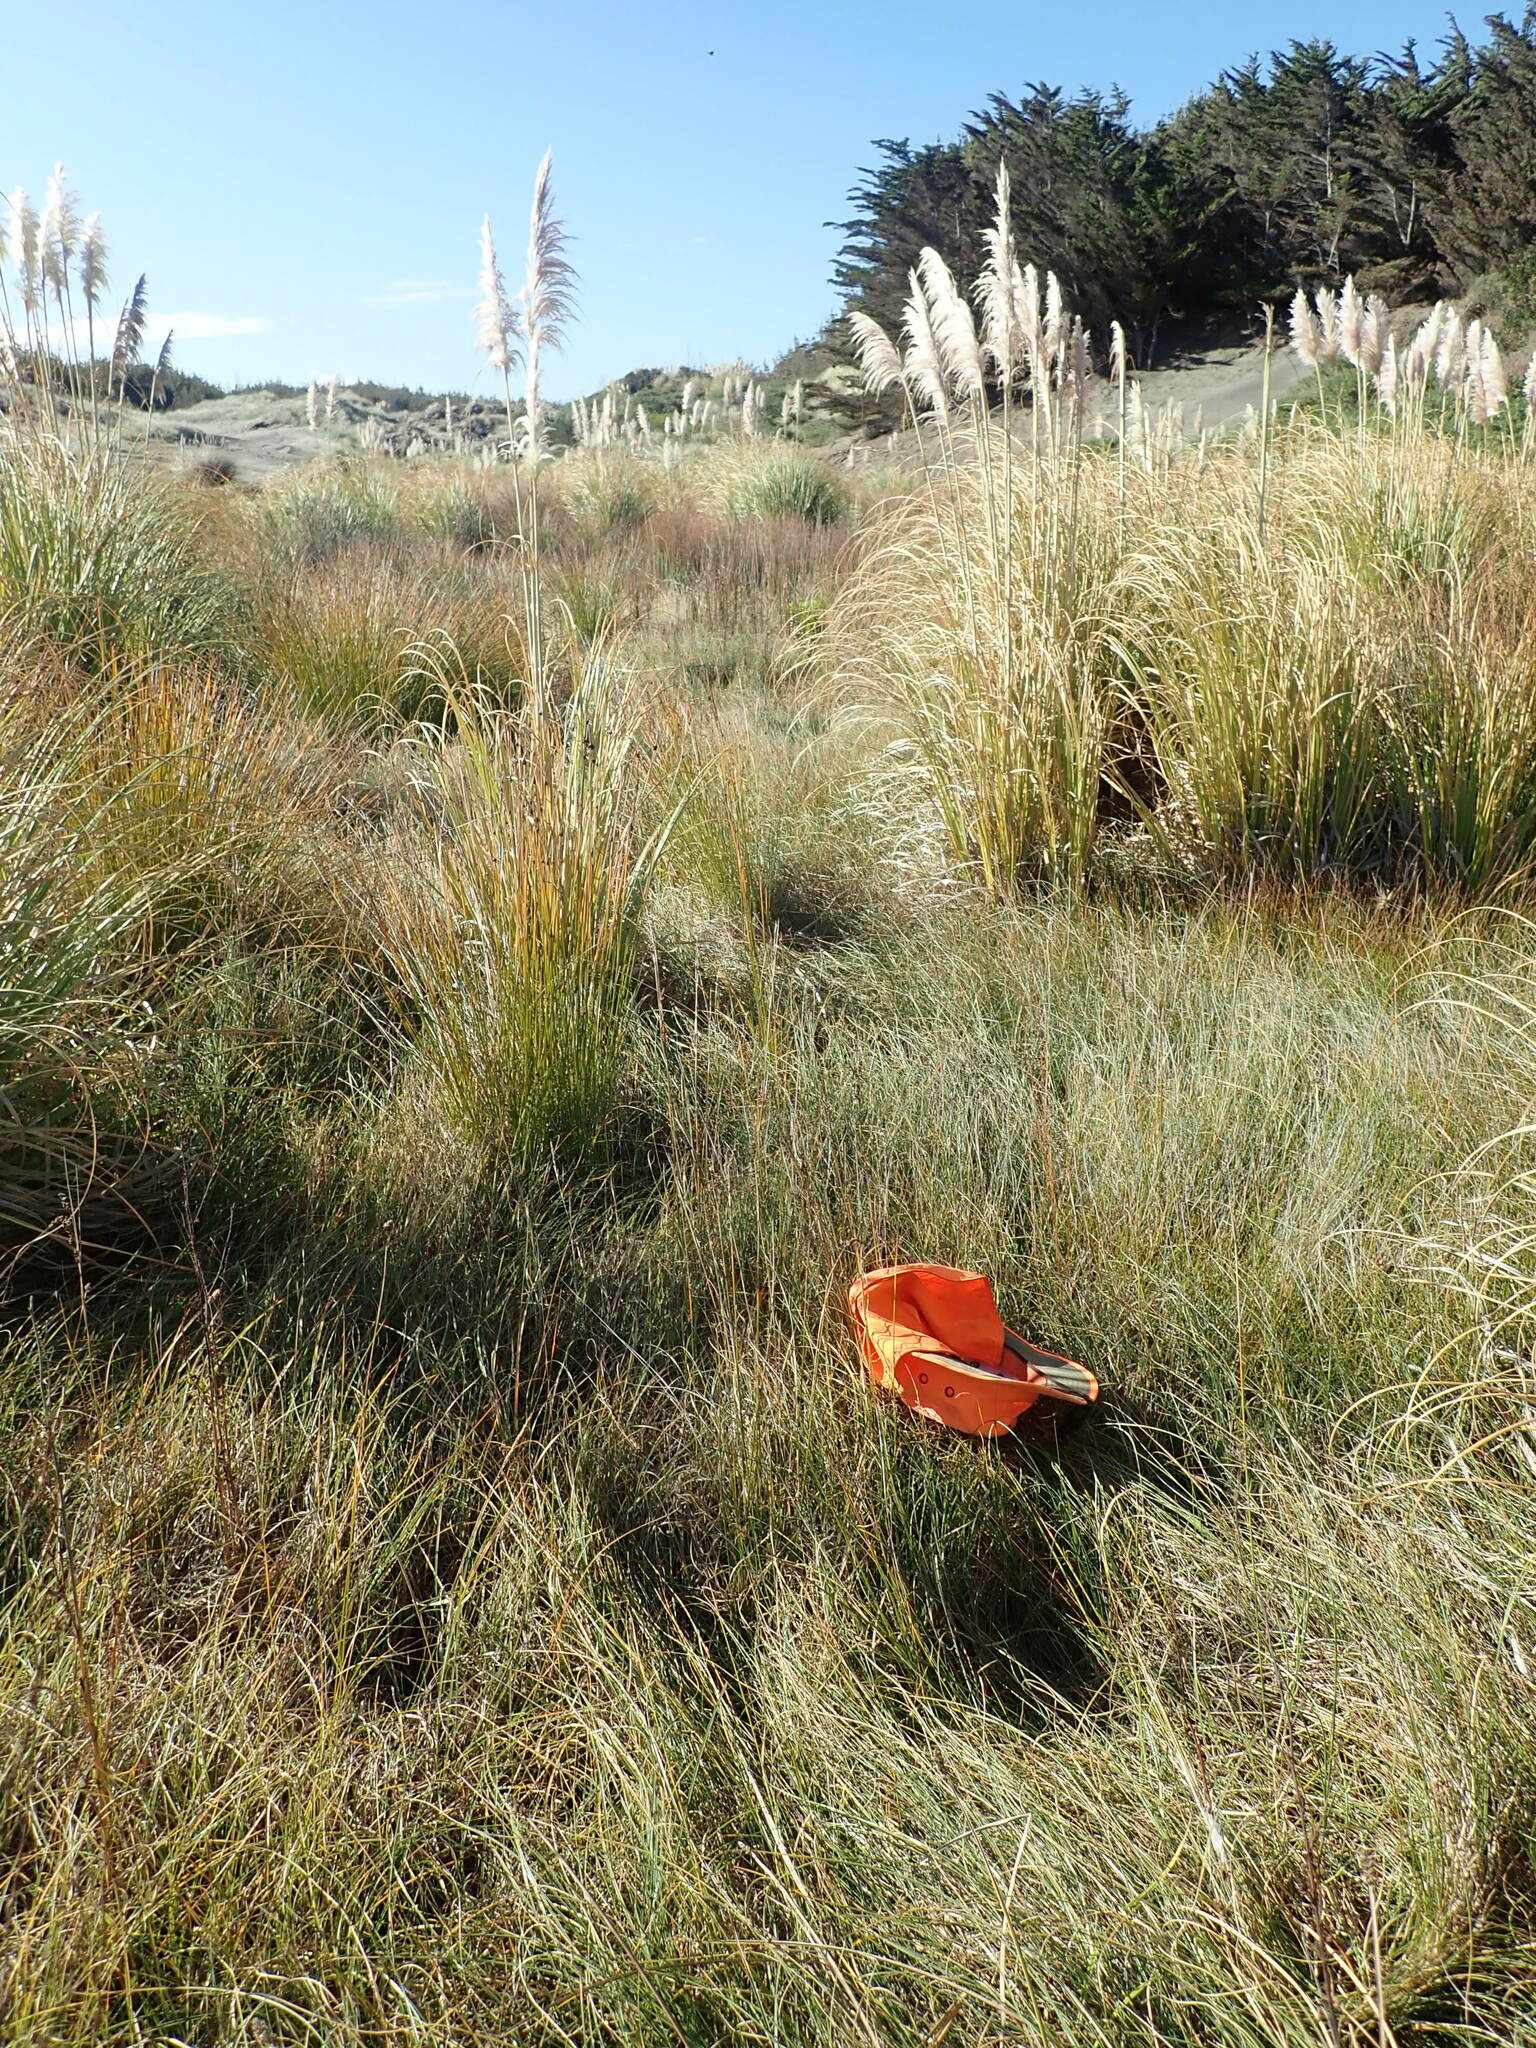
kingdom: Plantae
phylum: Tracheophyta
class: Liliopsida
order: Poales
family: Juncaceae
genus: Juncus
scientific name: Juncus kraussii
